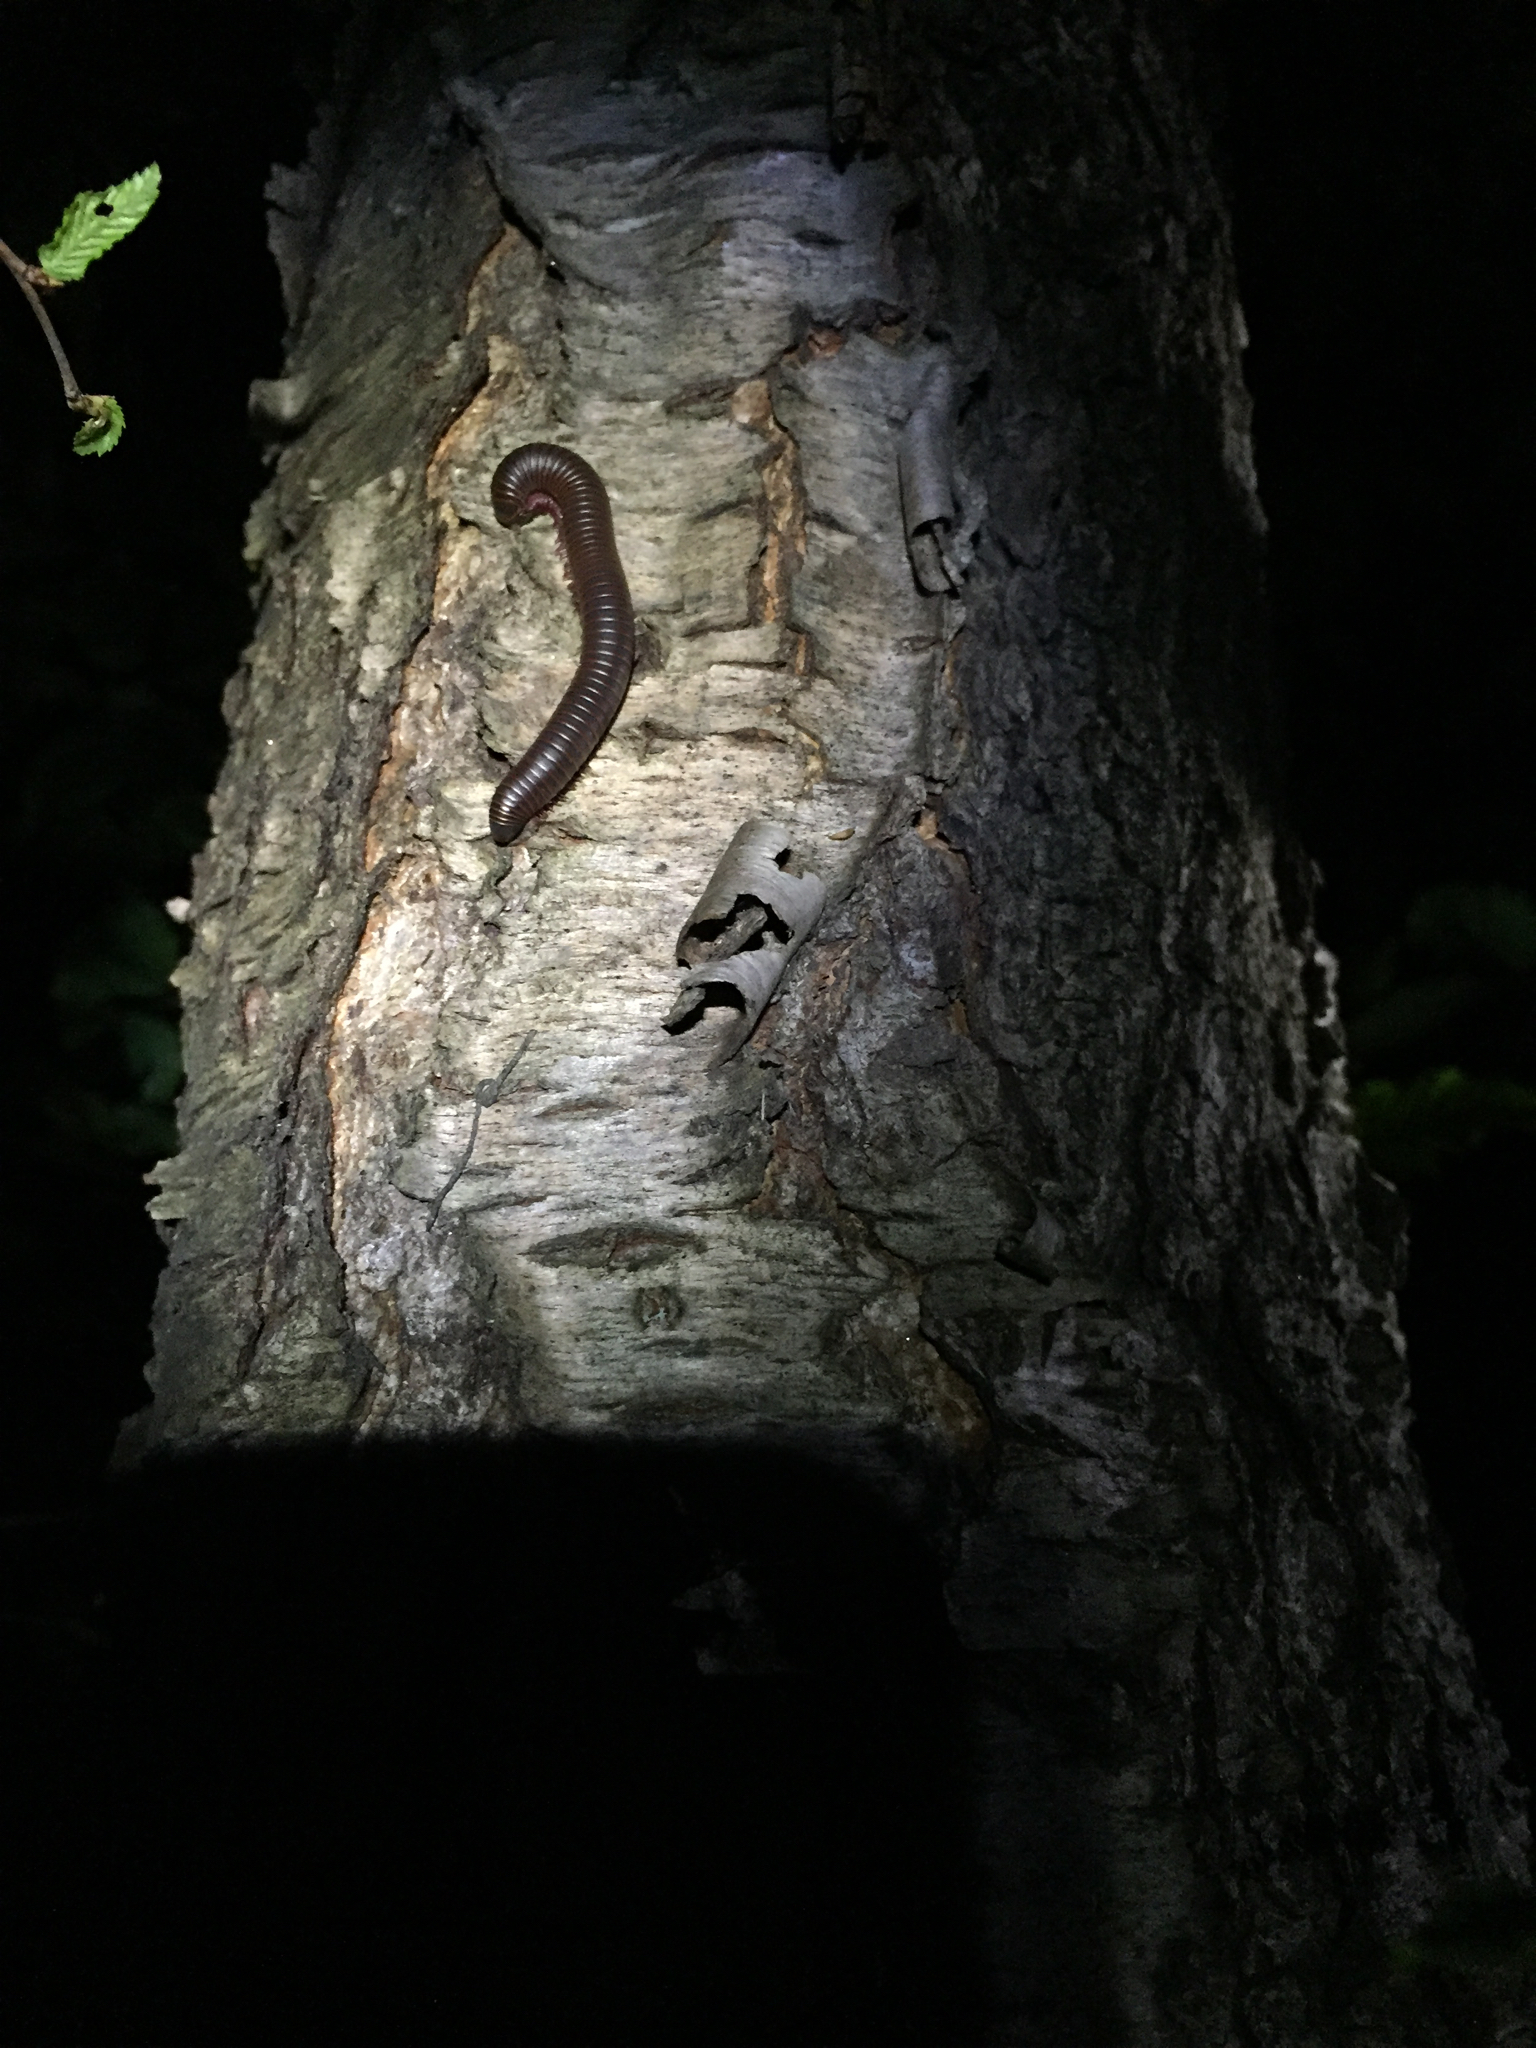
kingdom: Animalia
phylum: Arthropoda
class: Diplopoda
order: Spirobolida
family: Spirobolidae
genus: Narceus
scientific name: Narceus
